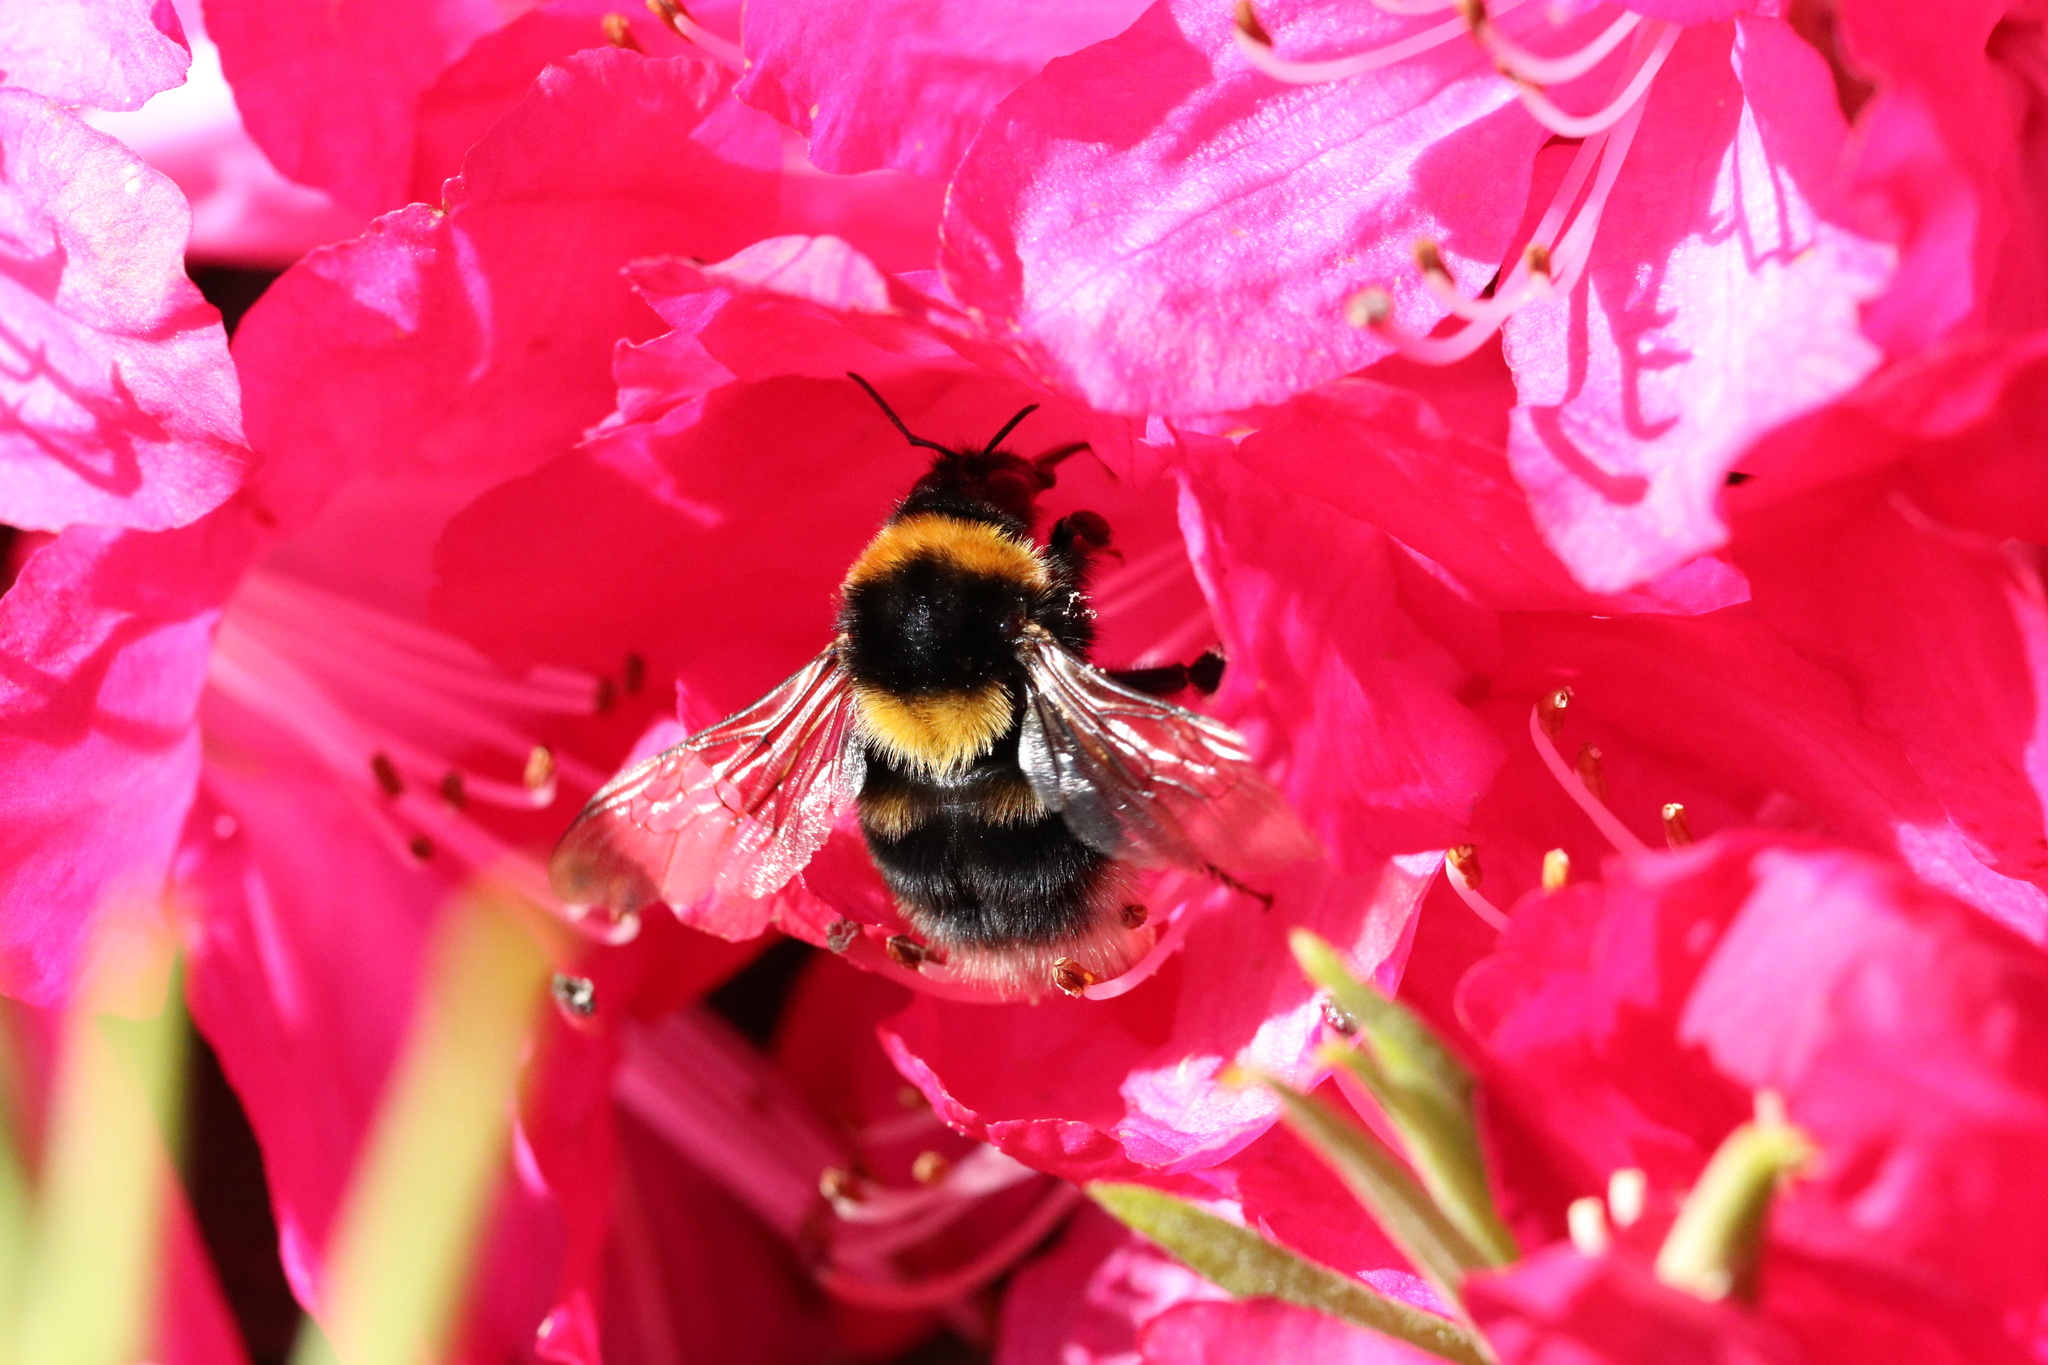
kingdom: Animalia
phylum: Arthropoda
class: Insecta
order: Hymenoptera
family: Apidae
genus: Bombus
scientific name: Bombus ruderatus
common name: Large garden bumblebee
